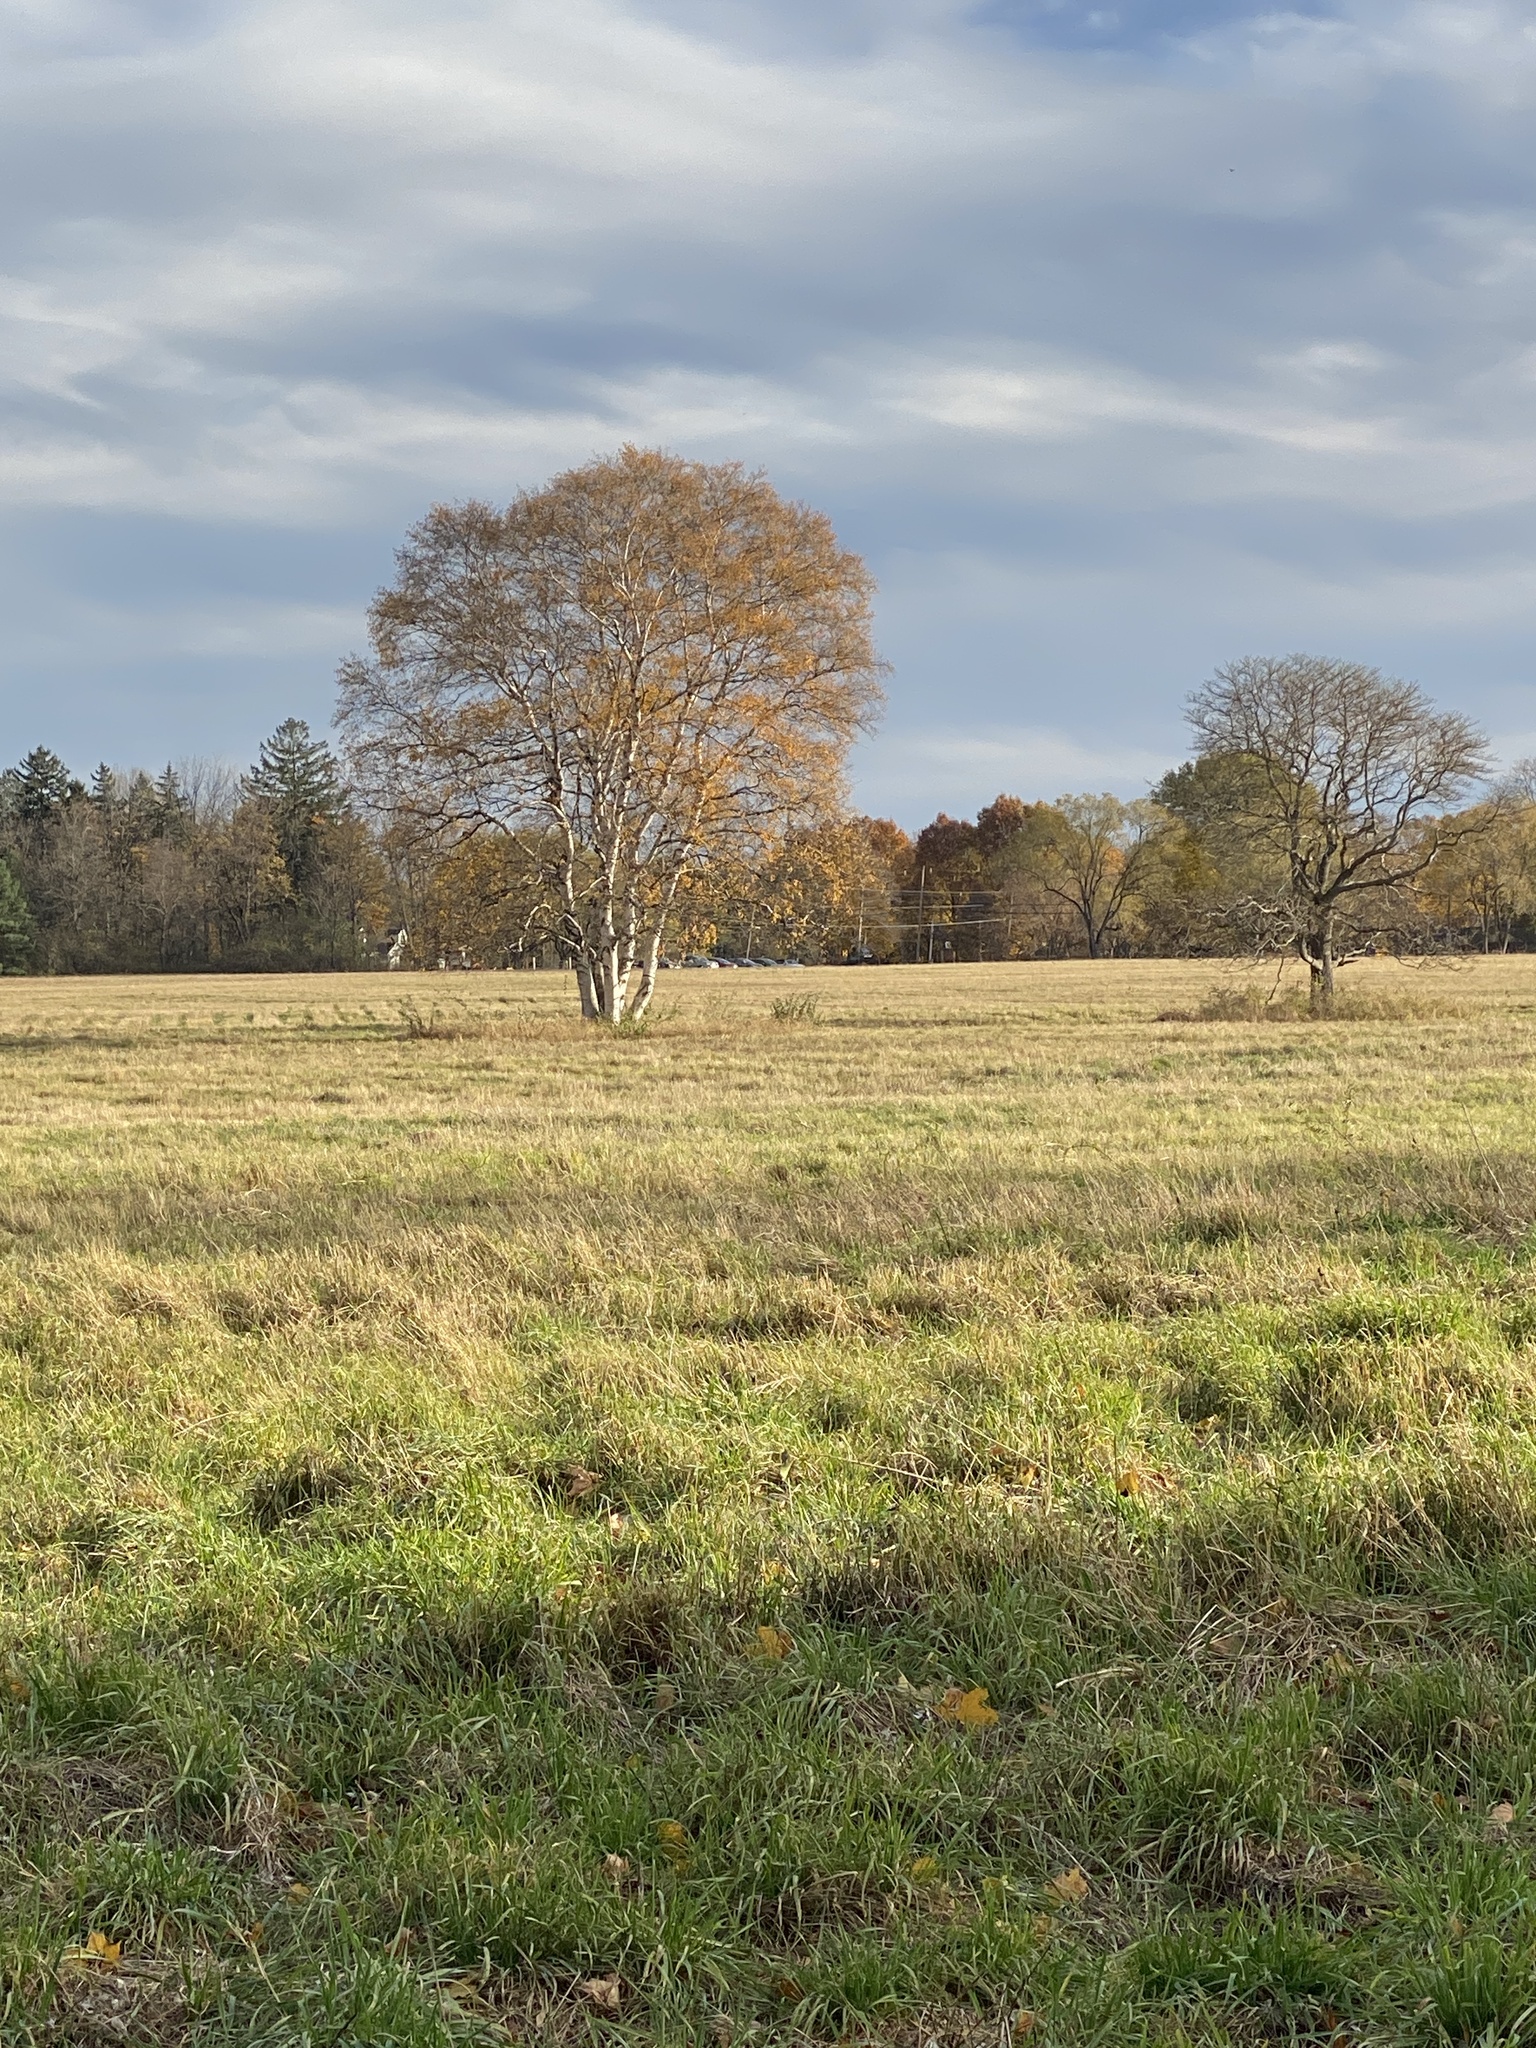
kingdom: Plantae
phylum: Tracheophyta
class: Magnoliopsida
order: Lamiales
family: Plantaginaceae
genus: Linaria
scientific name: Linaria vulgaris
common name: Butter and eggs
